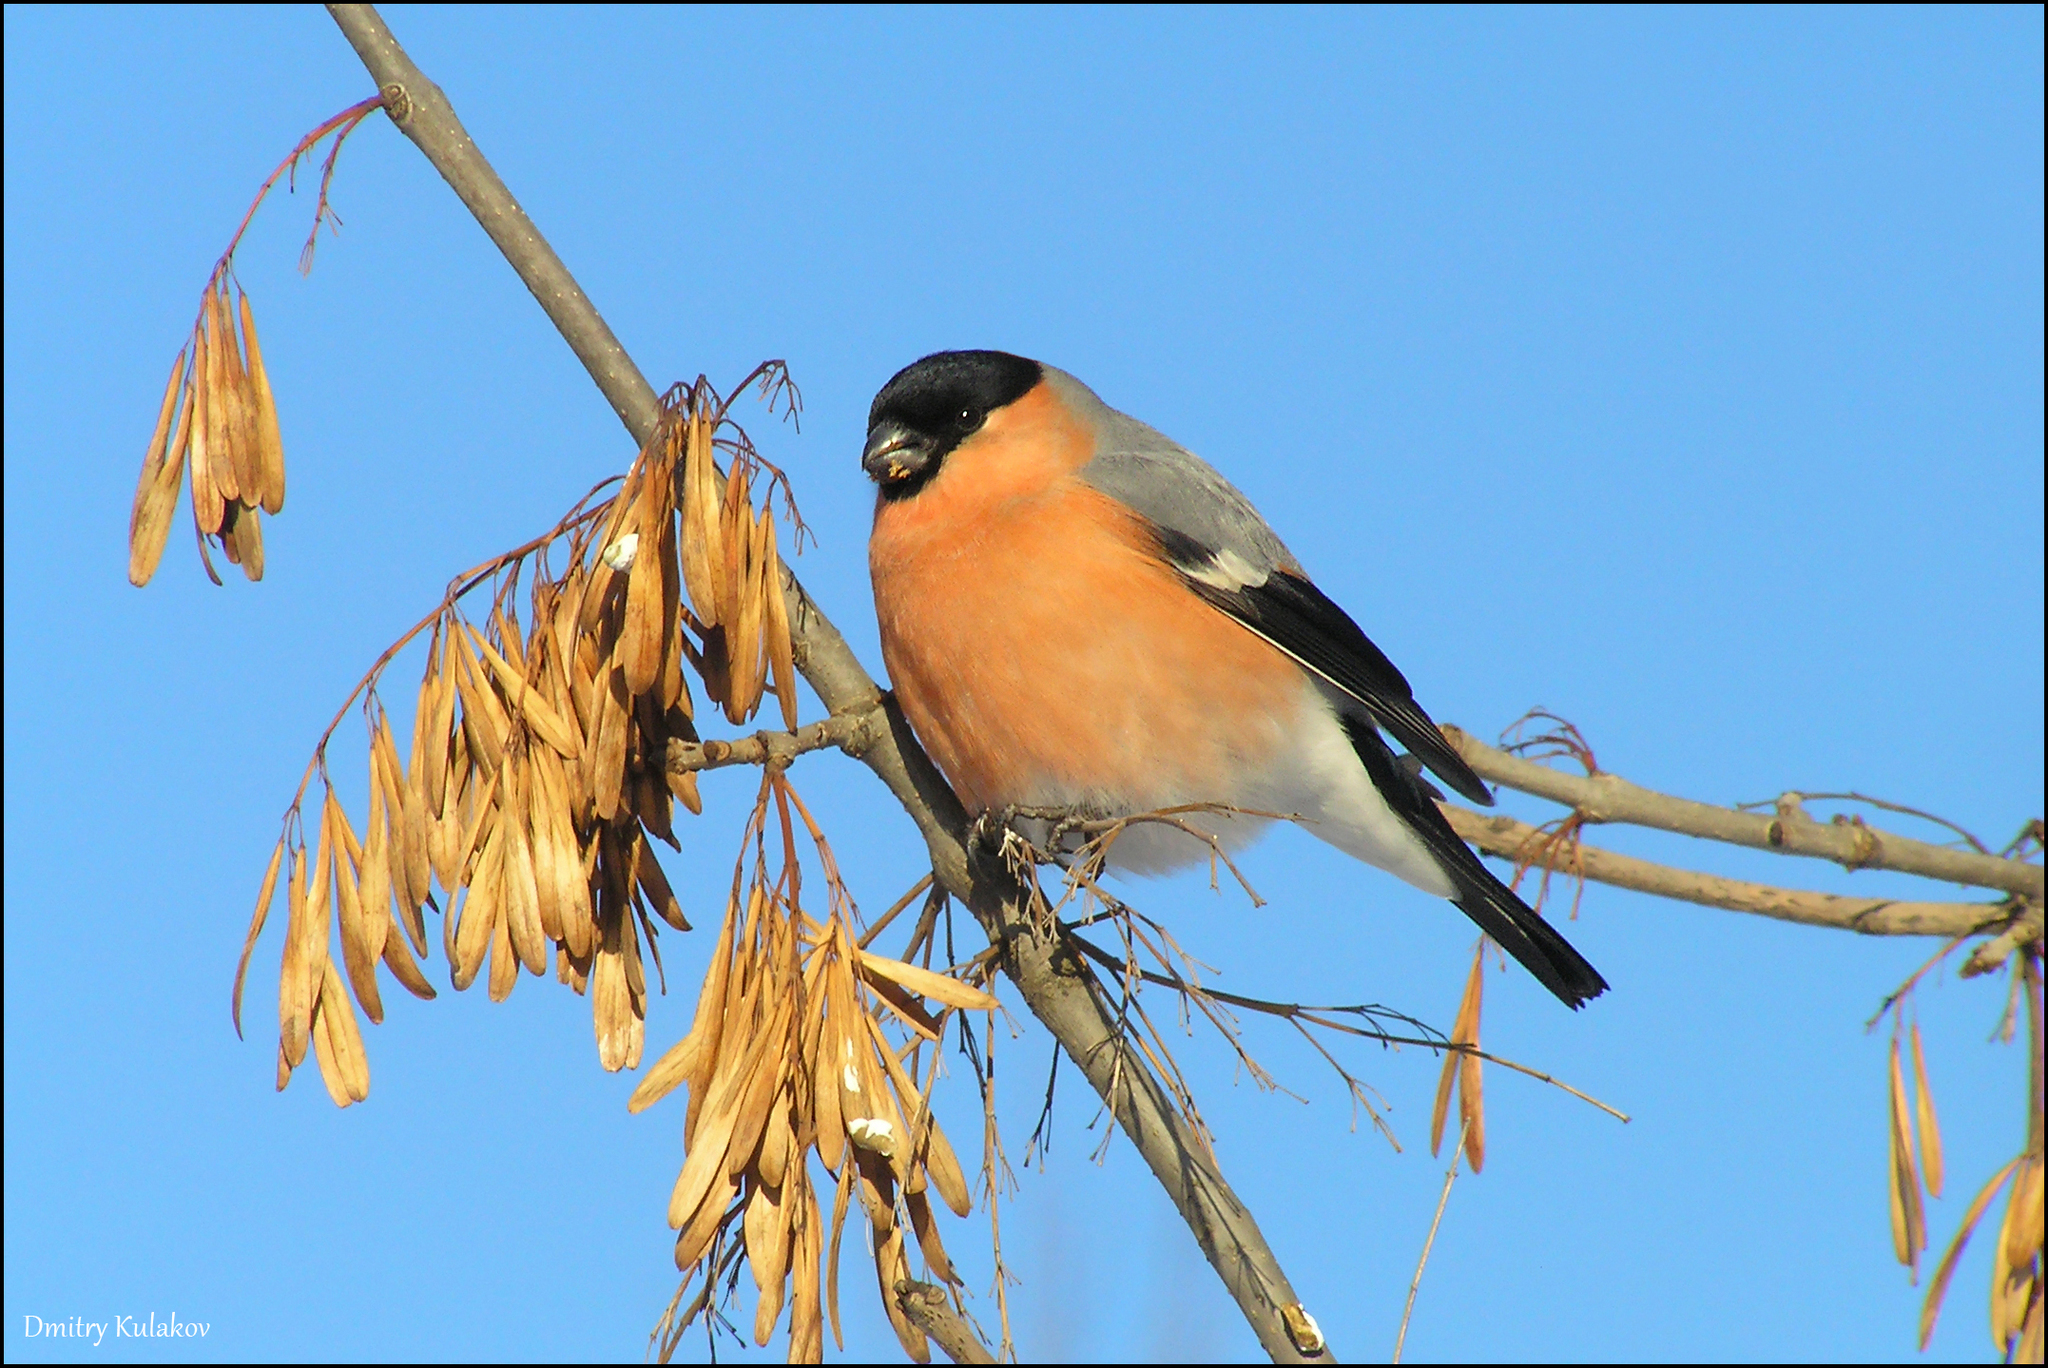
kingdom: Animalia
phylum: Chordata
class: Aves
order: Passeriformes
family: Fringillidae
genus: Pyrrhula
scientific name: Pyrrhula pyrrhula
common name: Eurasian bullfinch
